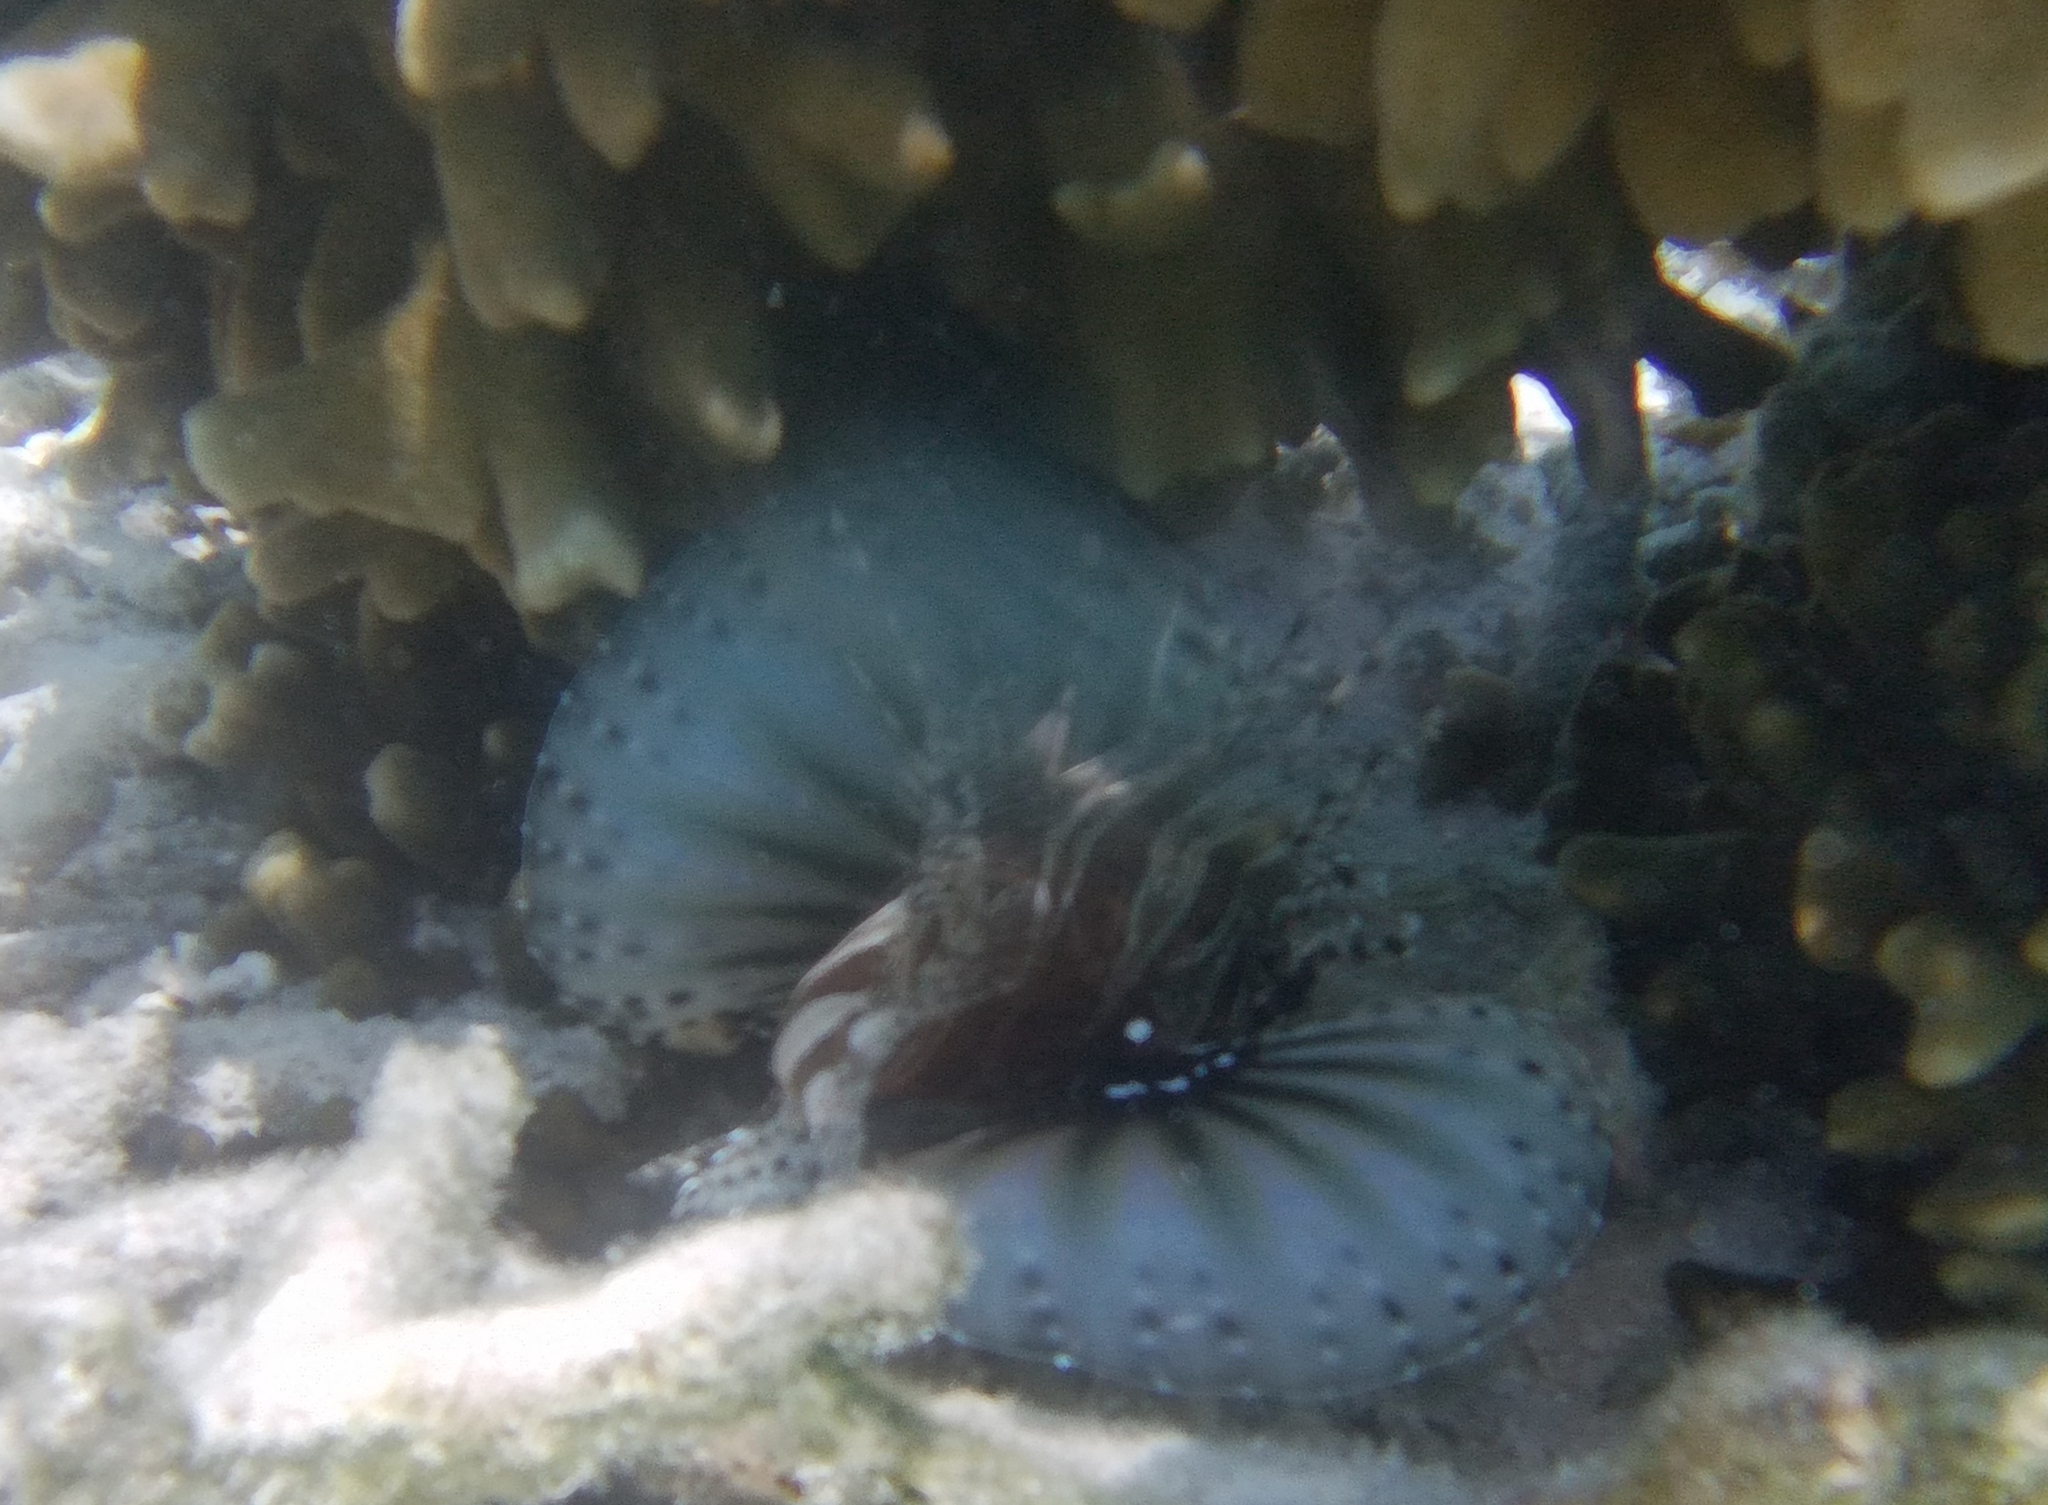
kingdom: Animalia
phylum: Chordata
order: Scorpaeniformes
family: Scorpaenidae
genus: Dendrochirus
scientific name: Dendrochirus zebra
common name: Zebra lionfish
